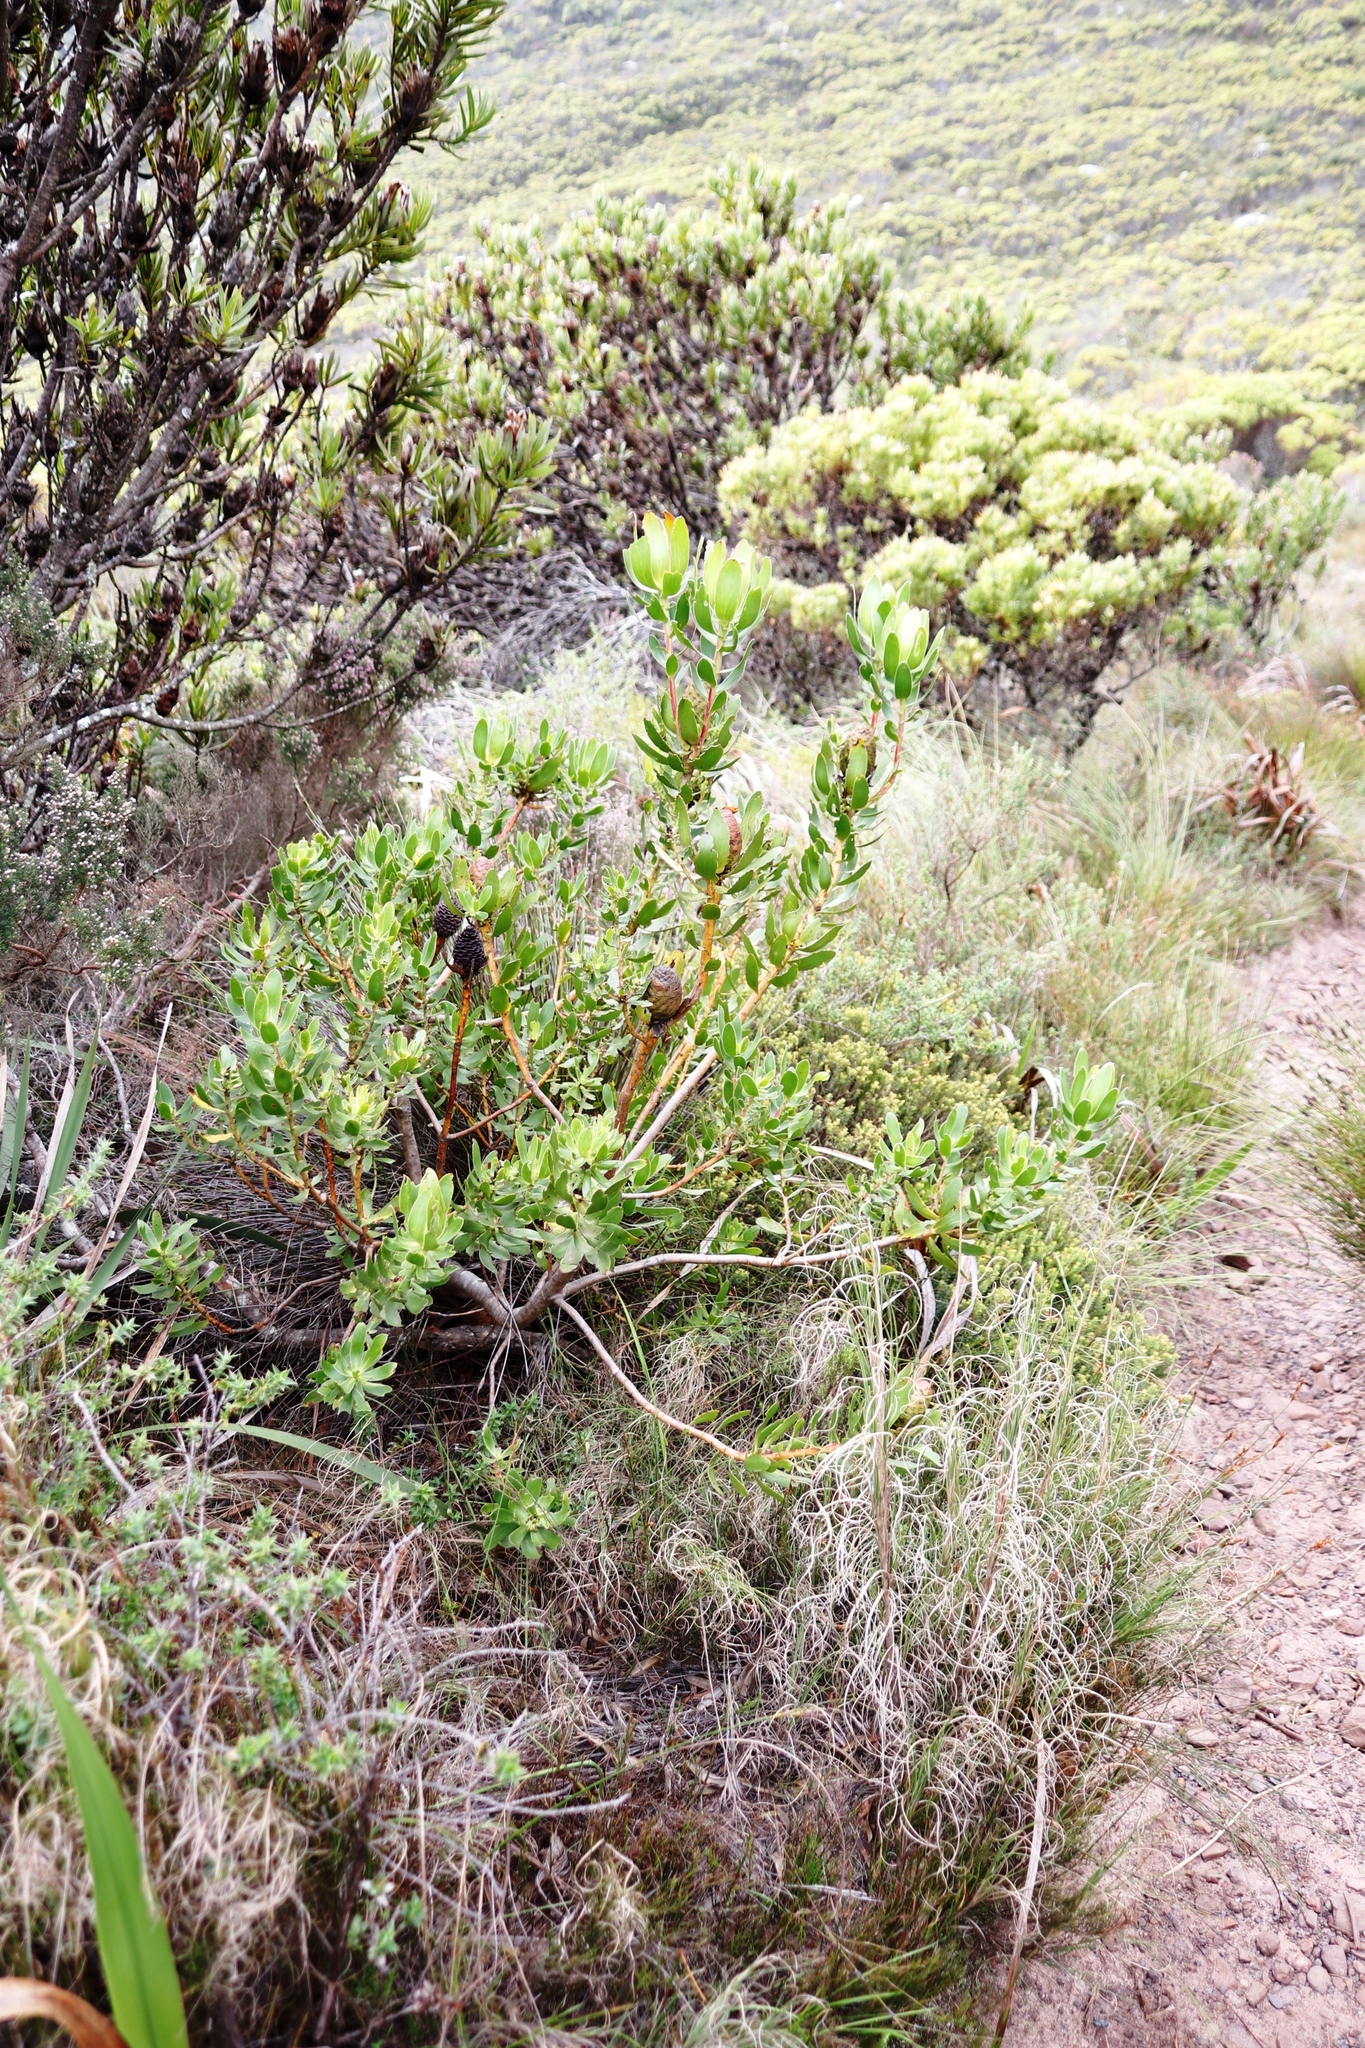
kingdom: Plantae
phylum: Tracheophyta
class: Magnoliopsida
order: Proteales
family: Proteaceae
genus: Leucadendron
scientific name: Leucadendron strobilinum
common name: Mountain rose
